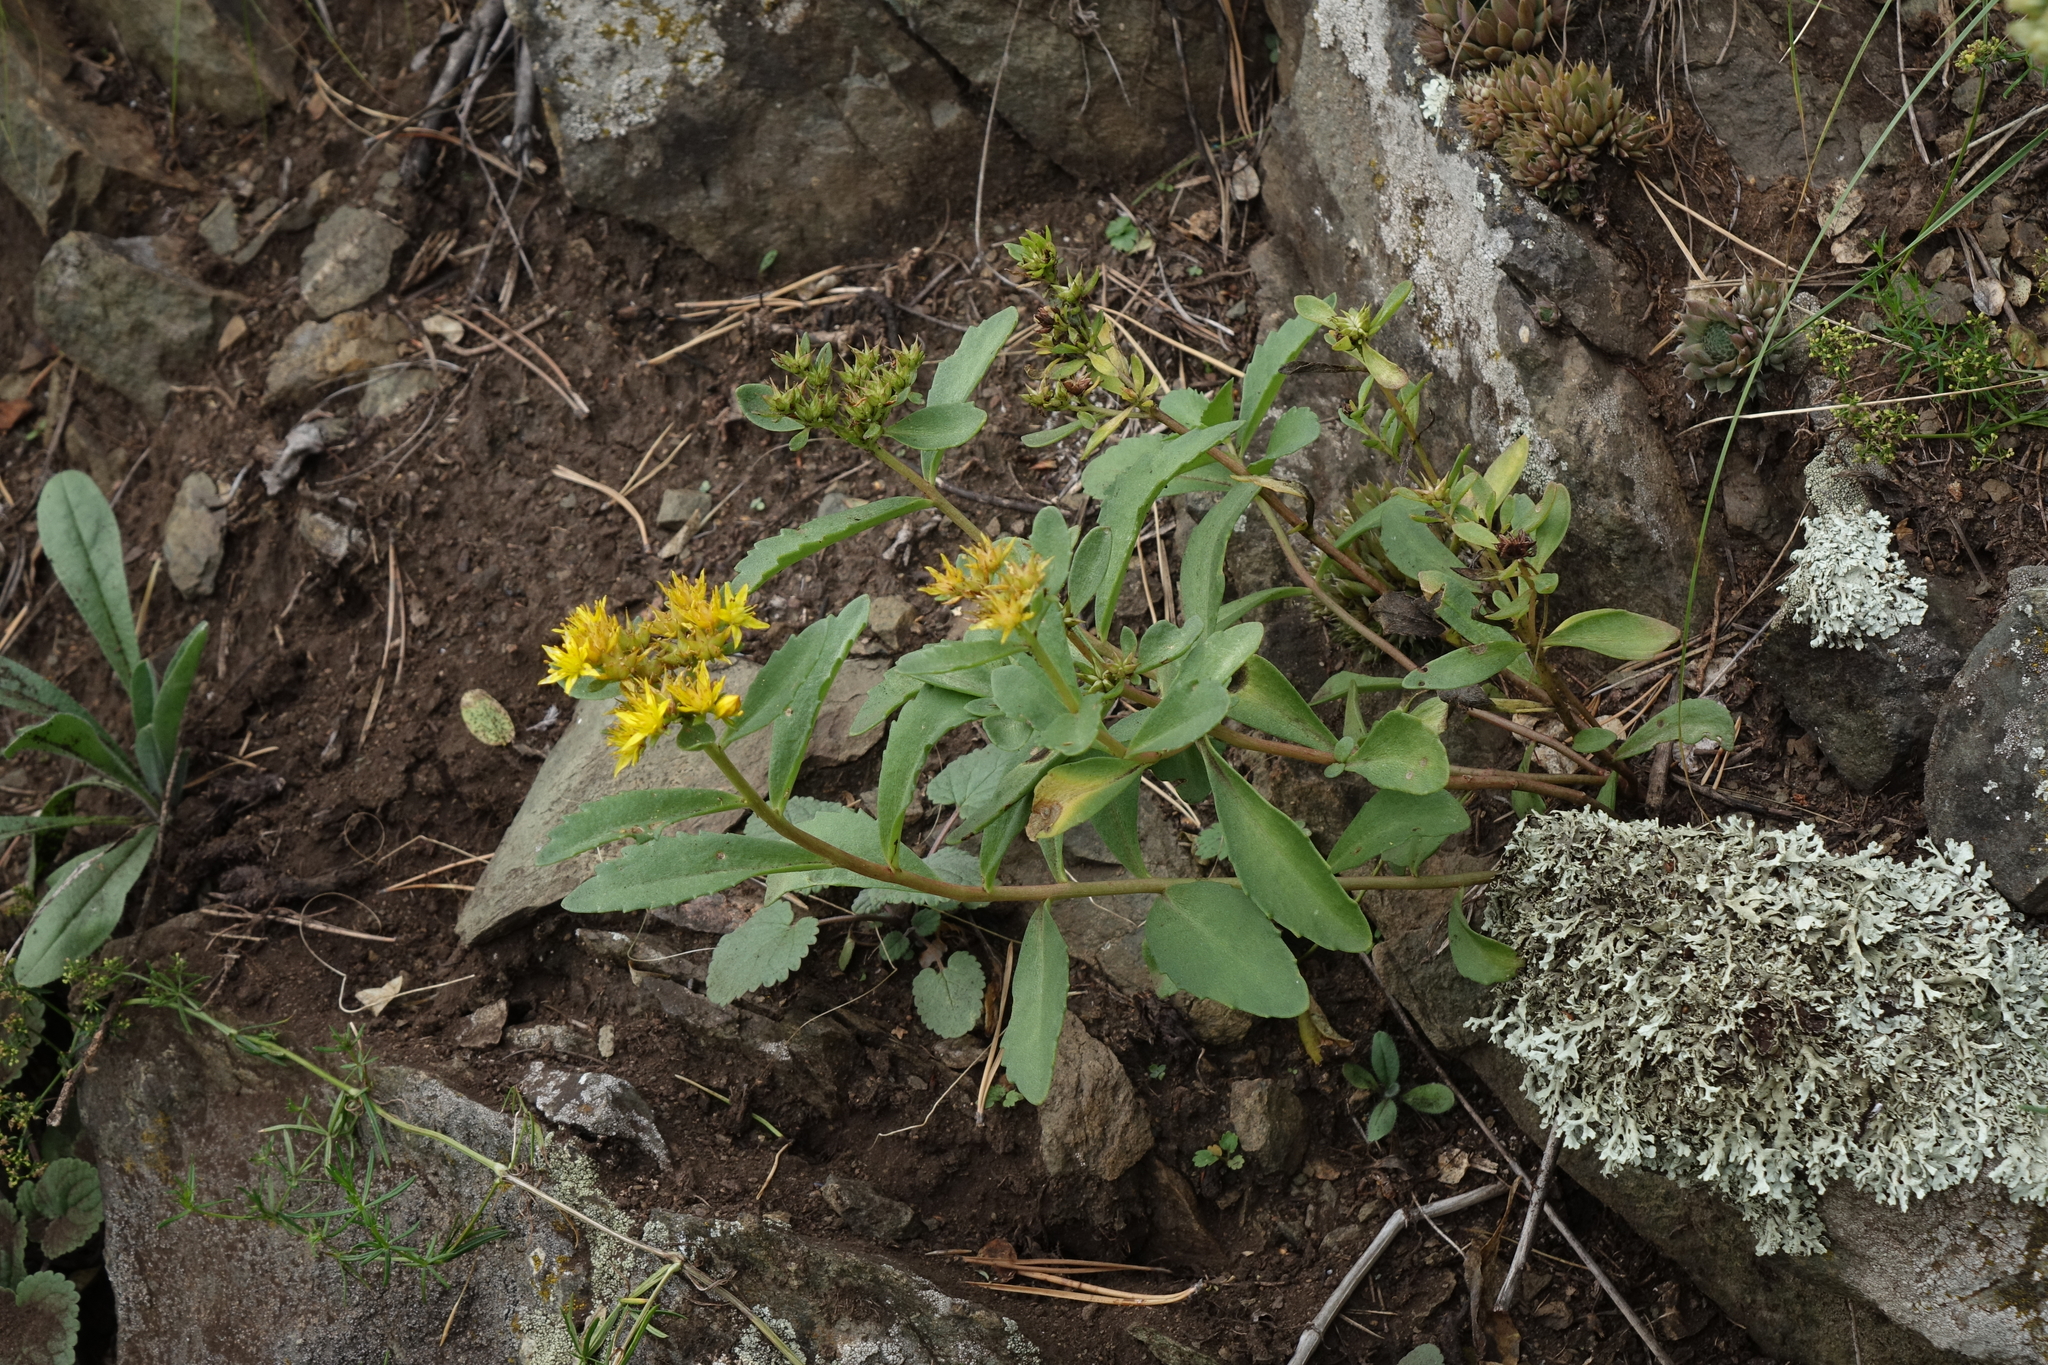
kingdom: Plantae
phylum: Tracheophyta
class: Magnoliopsida
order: Saxifragales
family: Crassulaceae
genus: Phedimus
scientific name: Phedimus aizoon
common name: Orpin aizoon
